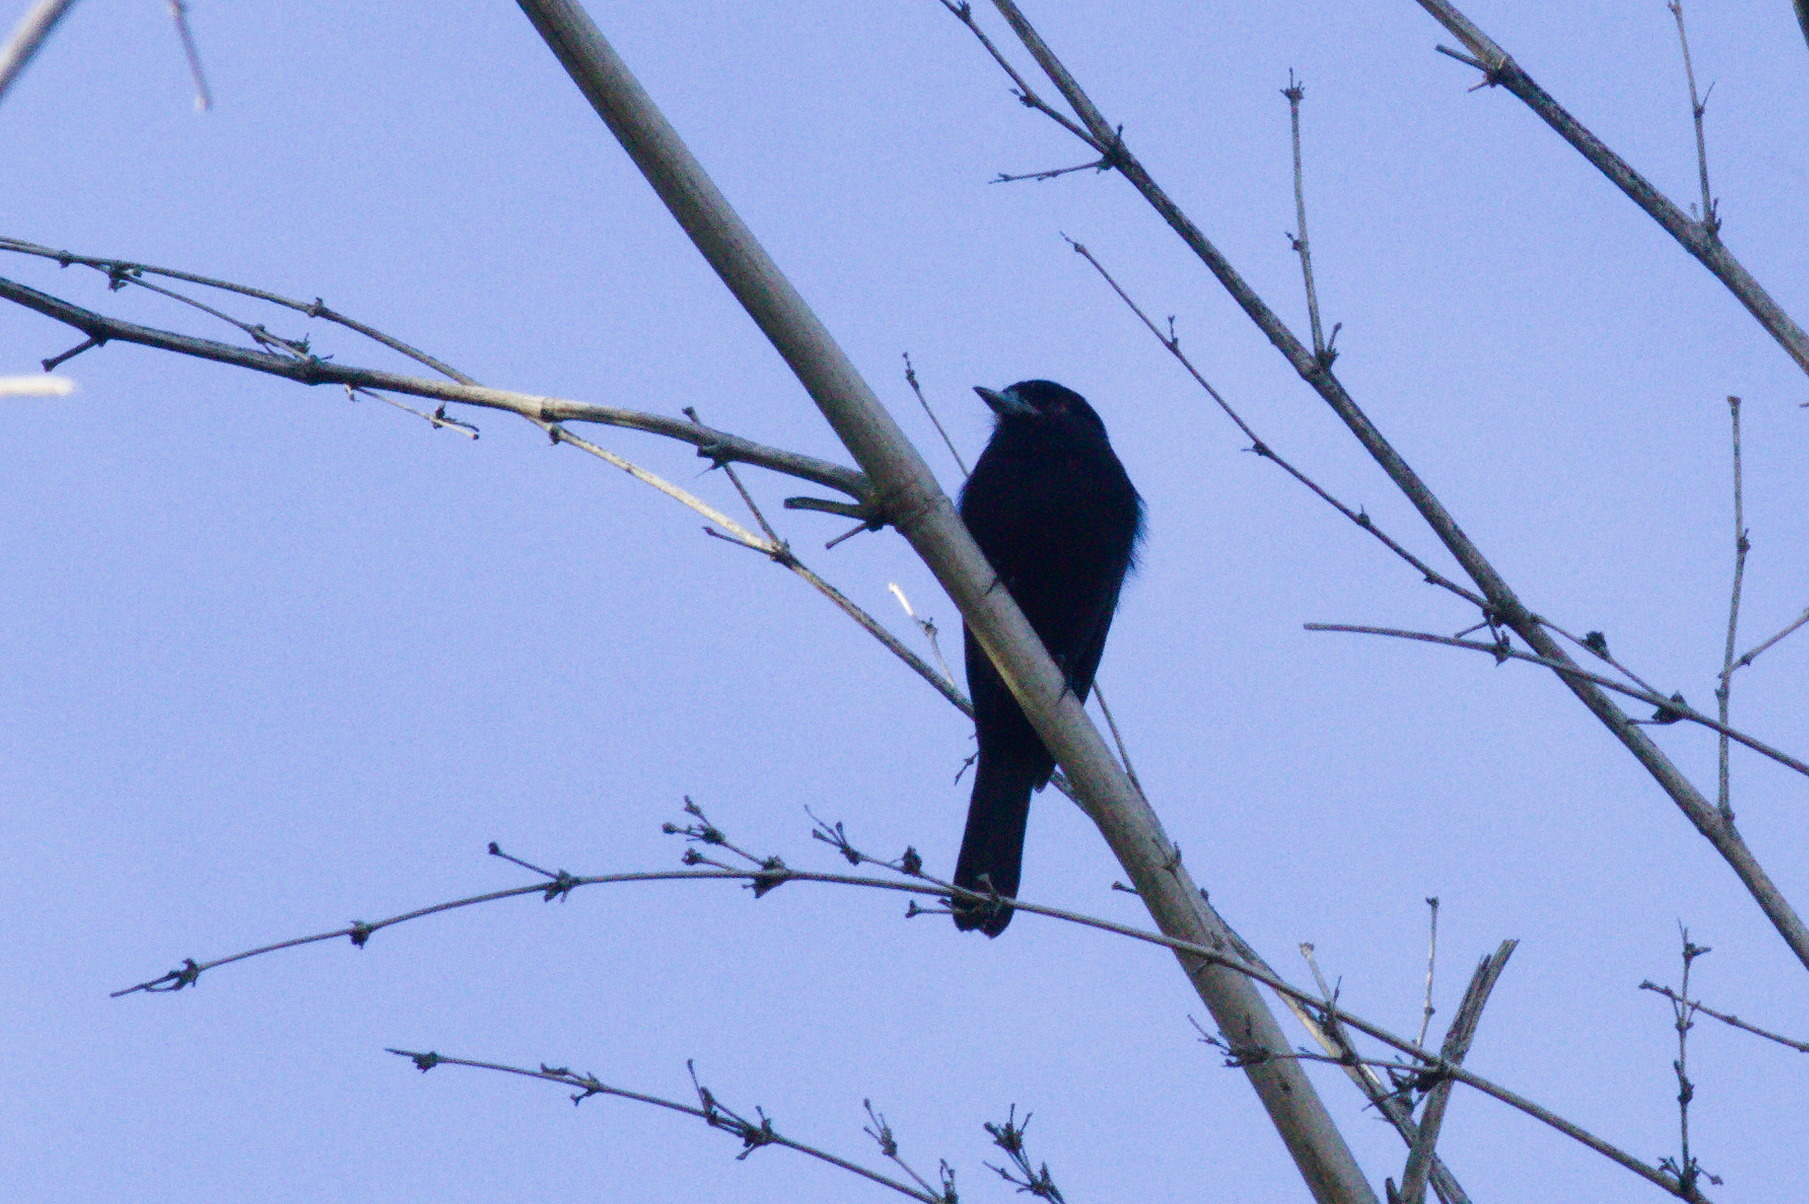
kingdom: Animalia
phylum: Chordata
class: Aves
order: Passeriformes
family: Tyrannidae
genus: Knipolegus
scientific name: Knipolegus cyanirostris
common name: Blue-billed black tyrant
